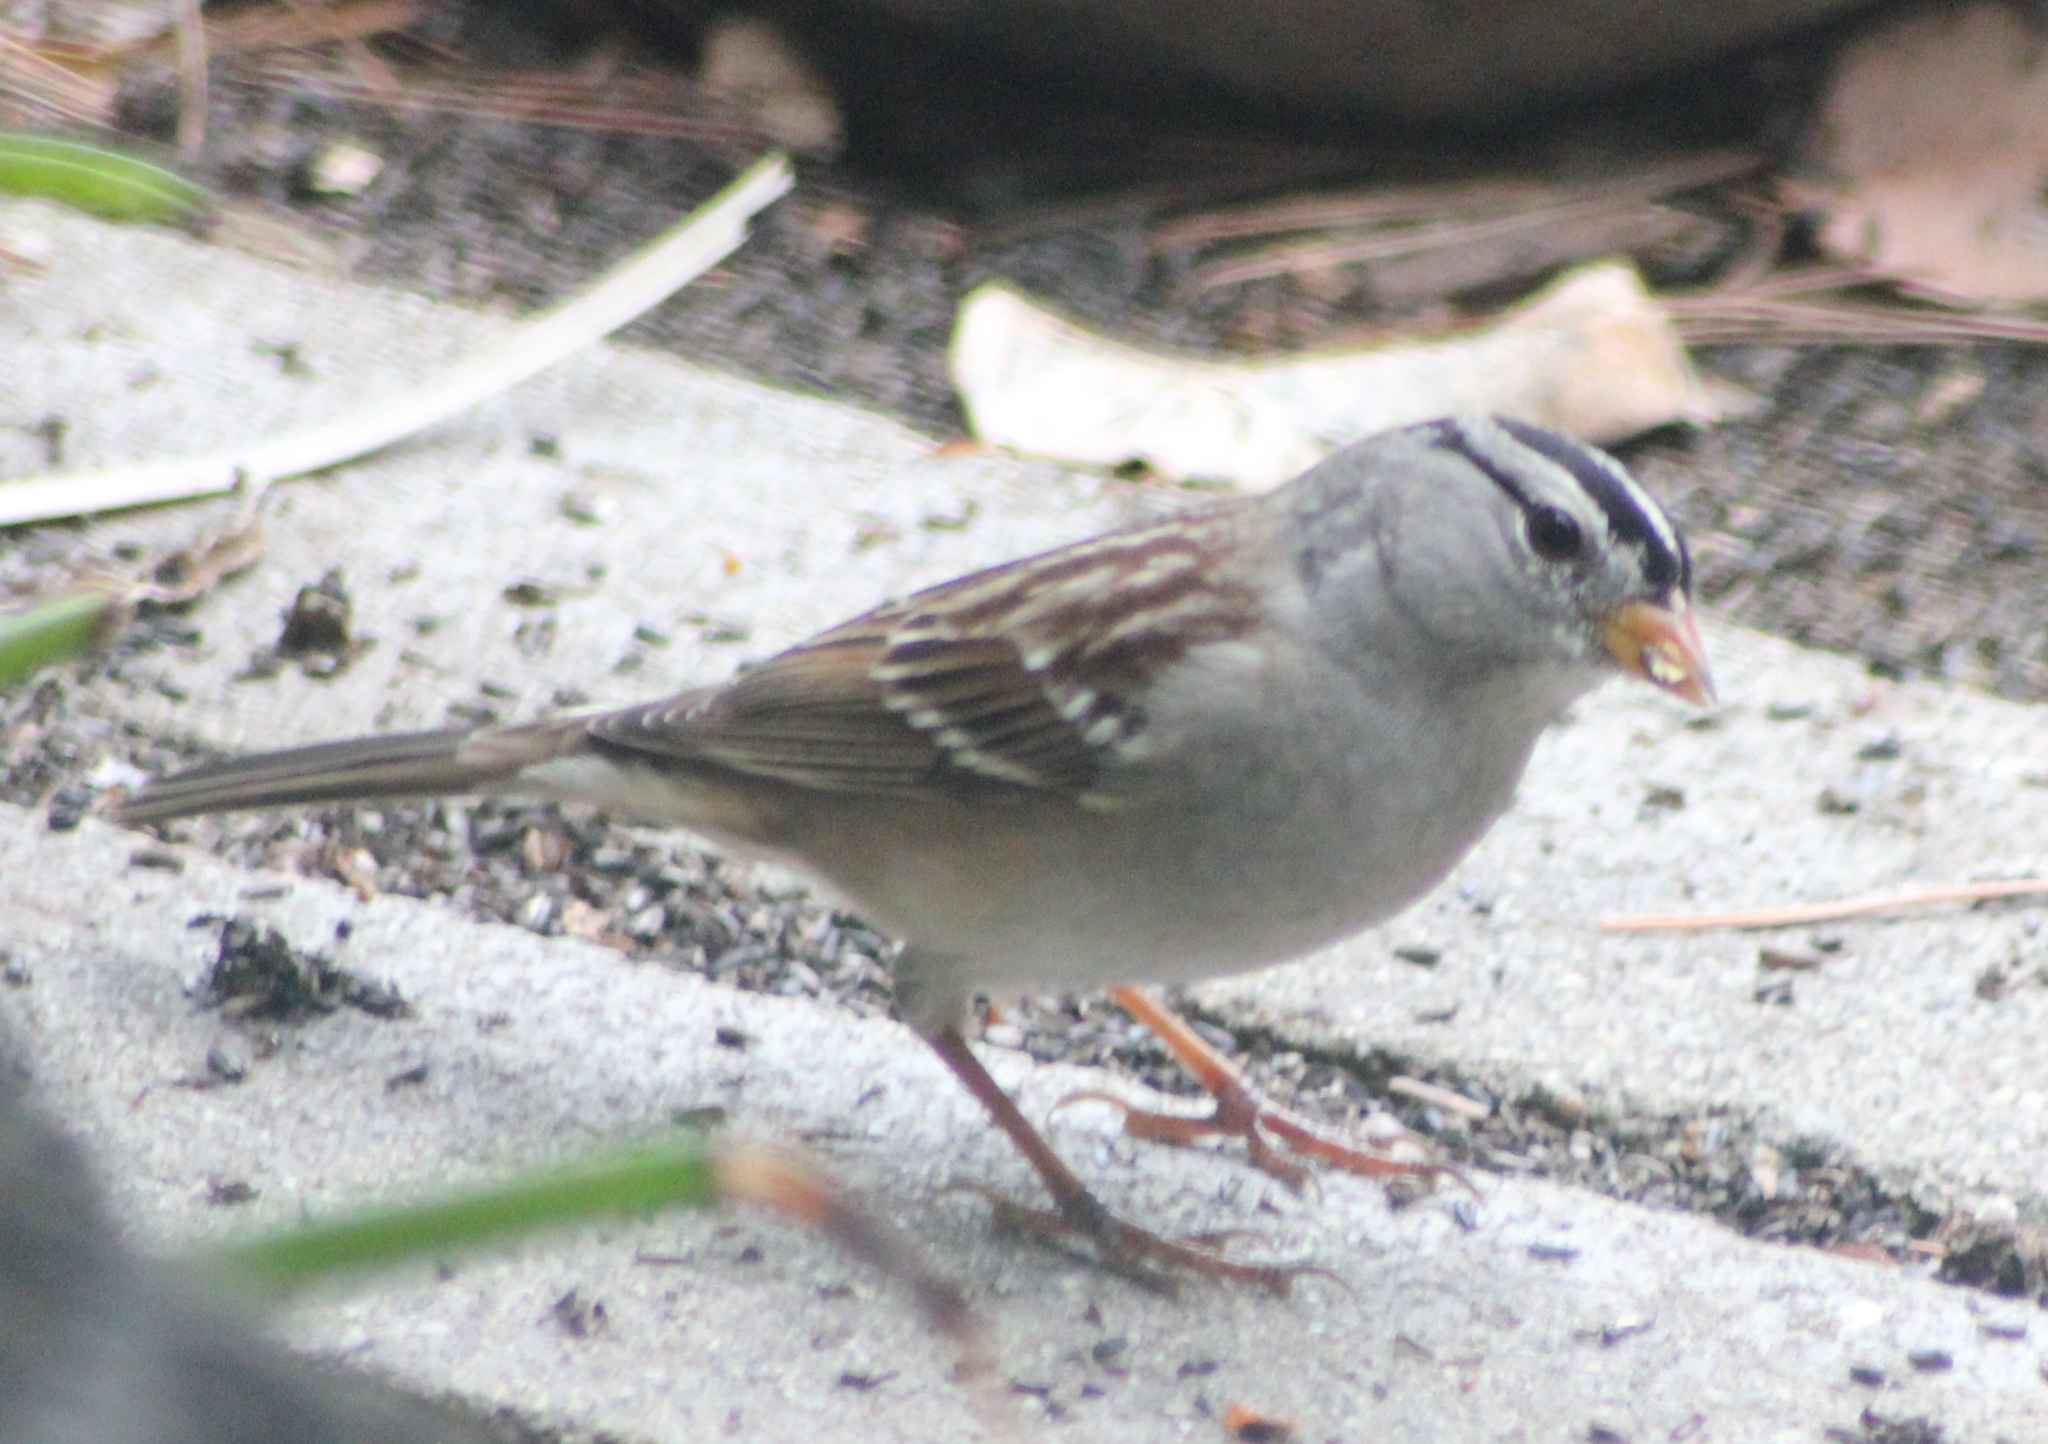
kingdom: Animalia
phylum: Chordata
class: Aves
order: Passeriformes
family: Passerellidae
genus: Zonotrichia
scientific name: Zonotrichia leucophrys
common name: White-crowned sparrow
